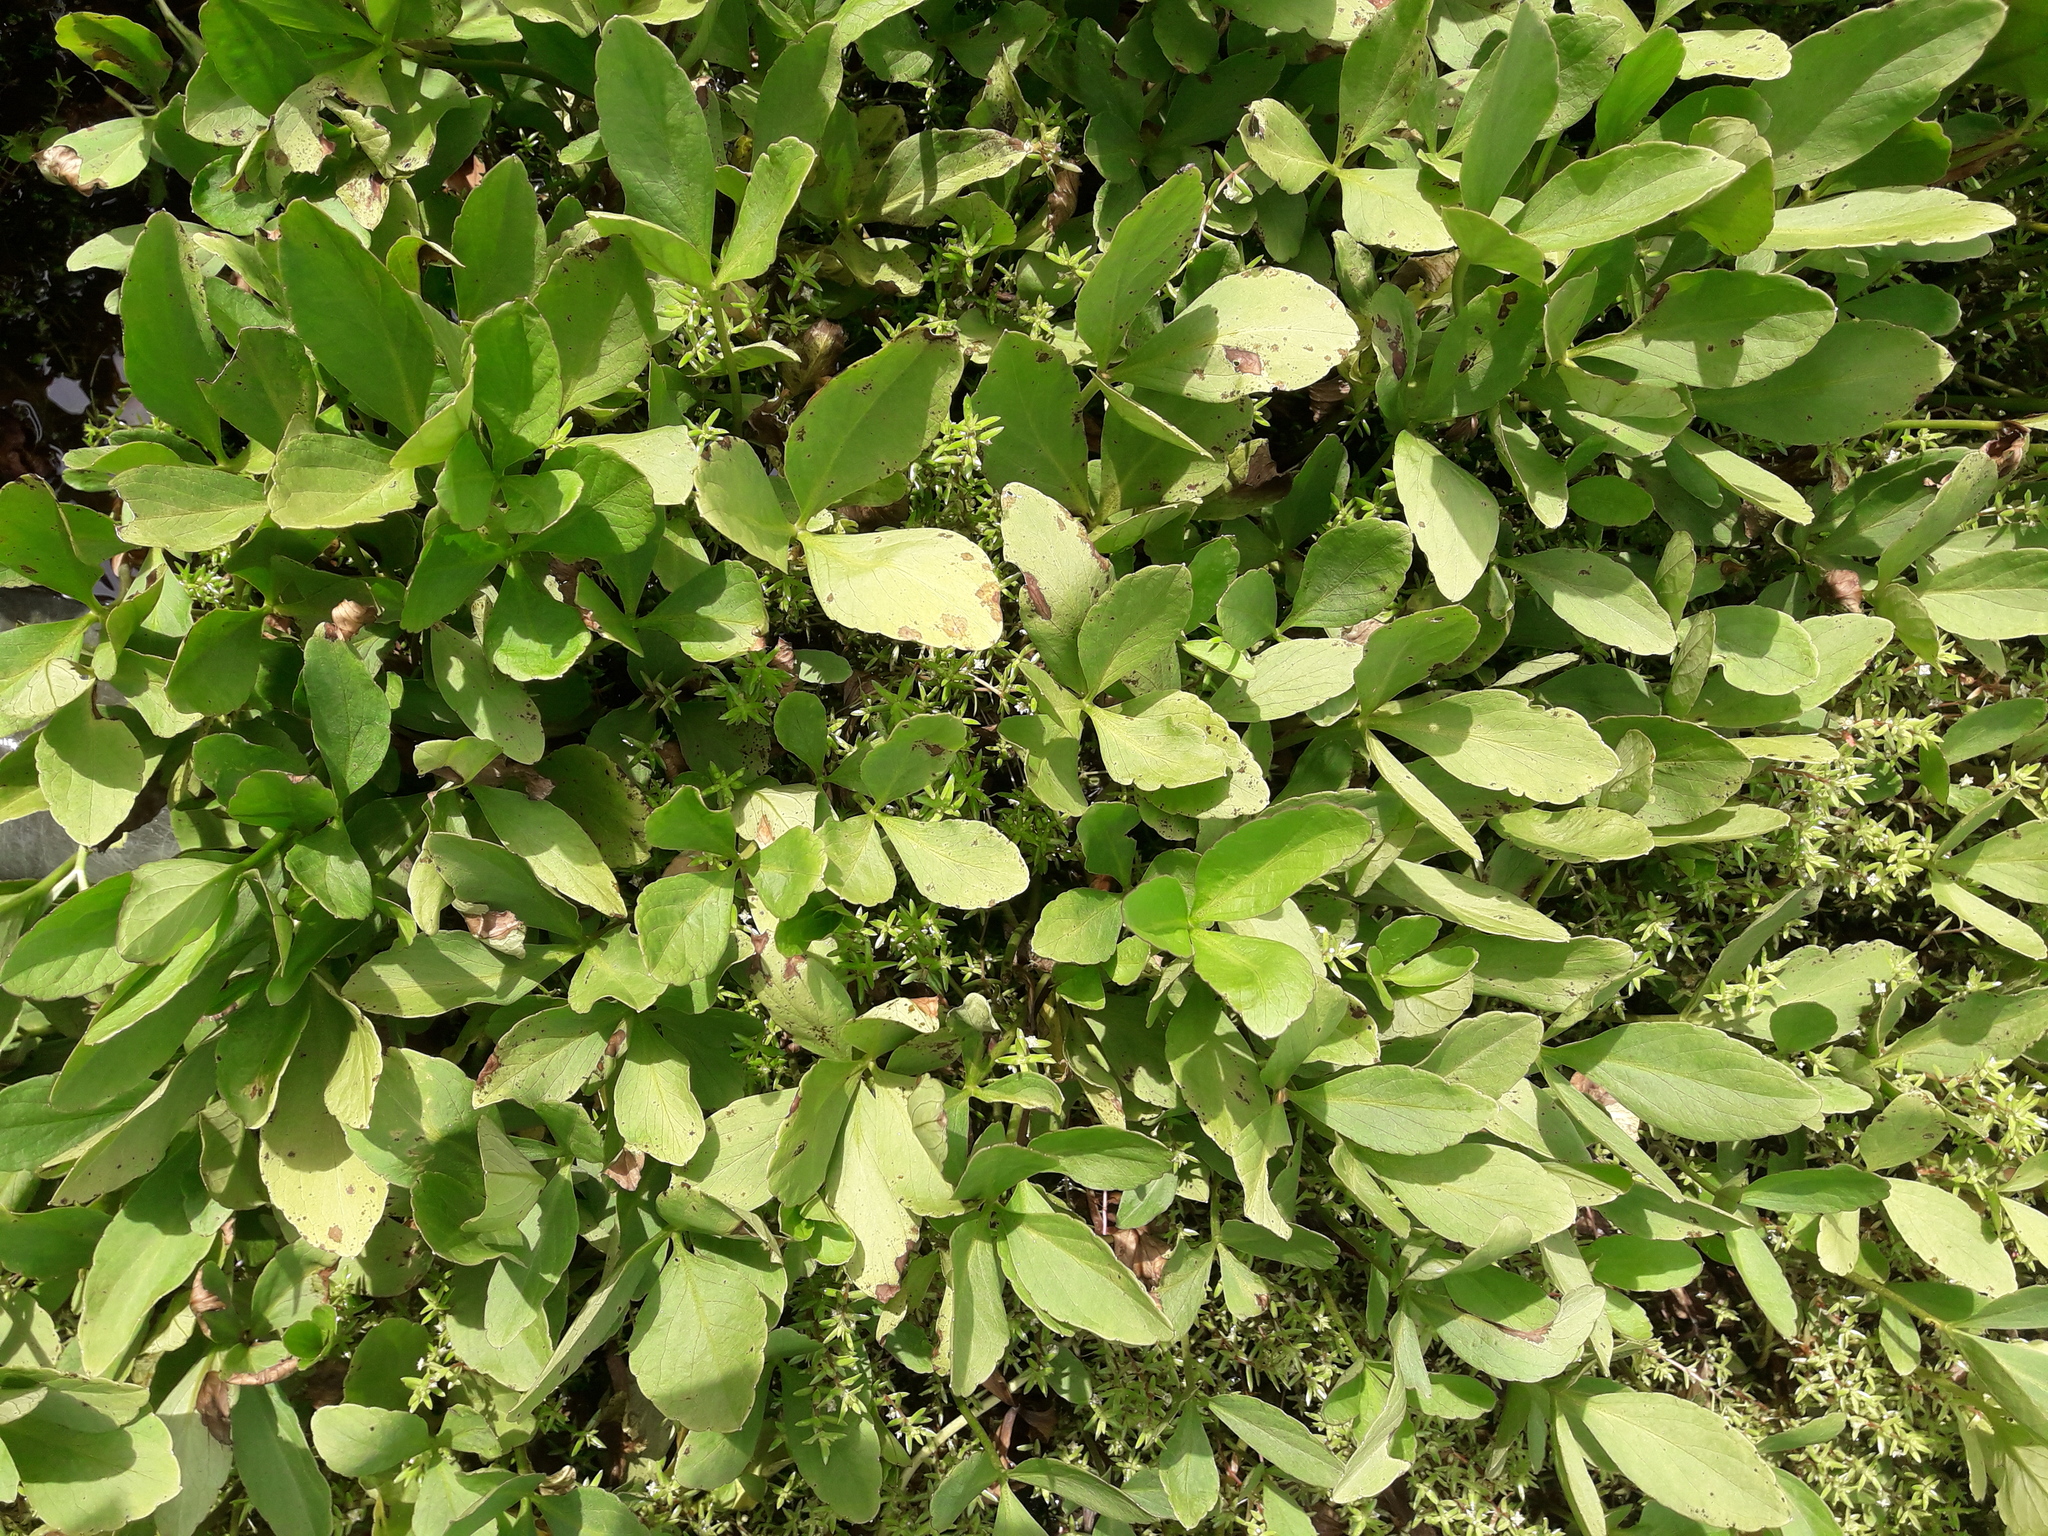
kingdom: Plantae
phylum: Tracheophyta
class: Magnoliopsida
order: Saxifragales
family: Crassulaceae
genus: Crassula
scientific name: Crassula helmsii
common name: New zealand pigmyweed
